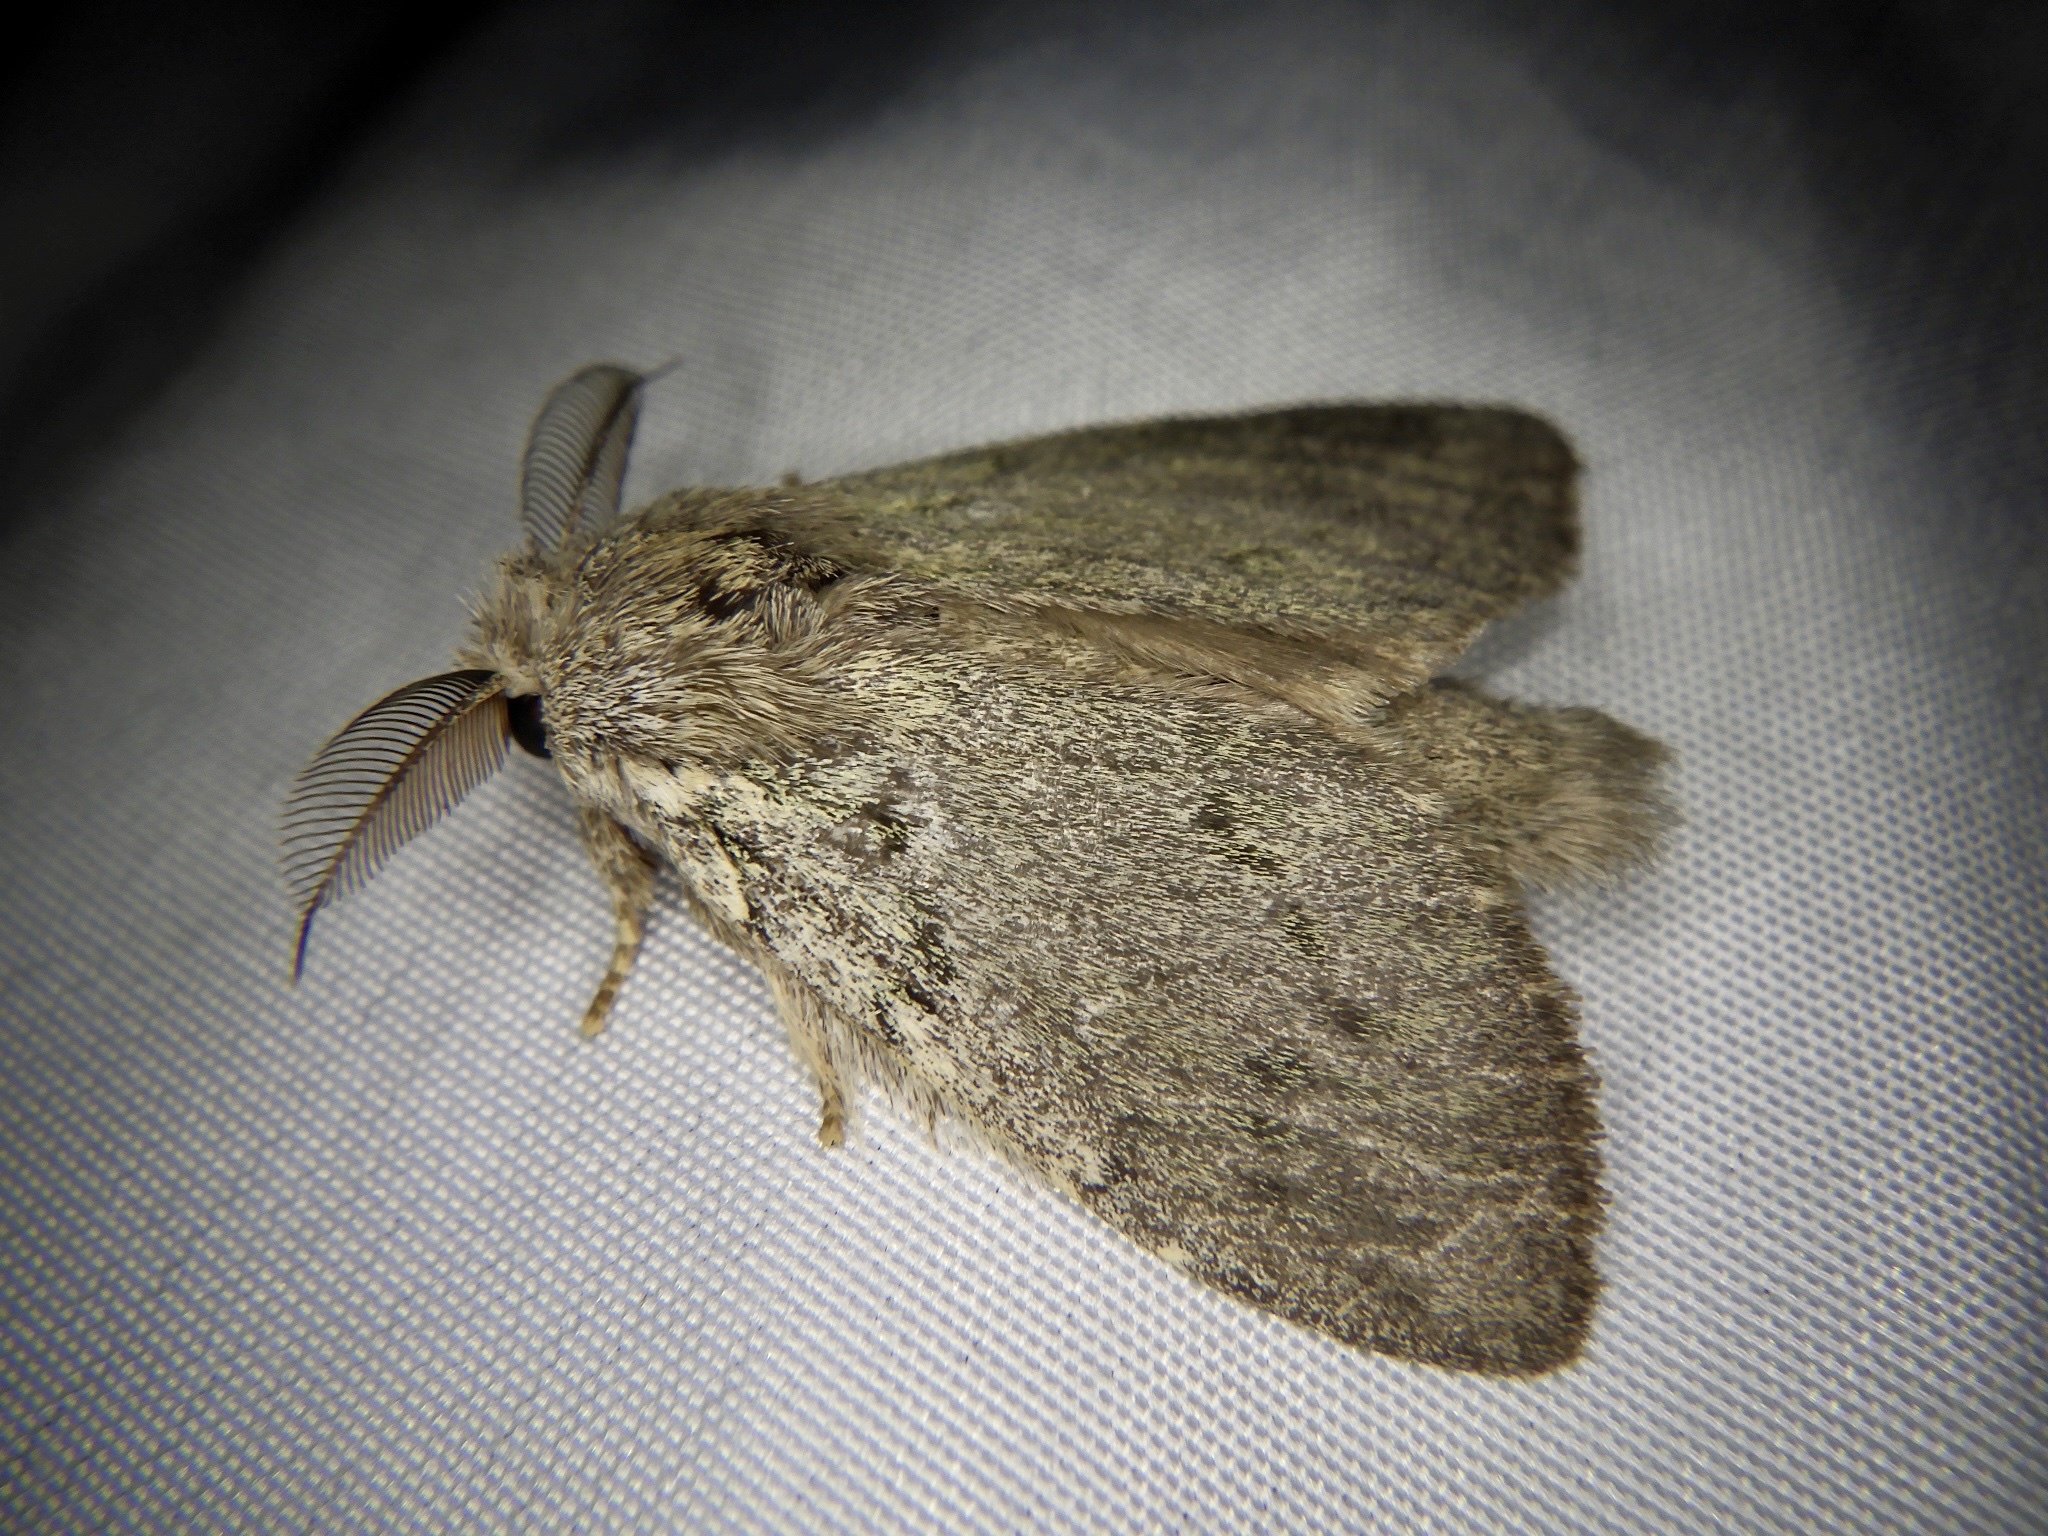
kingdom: Animalia
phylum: Arthropoda
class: Insecta
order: Lepidoptera
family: Notodontidae
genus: Syntypistis
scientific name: Syntypistis
